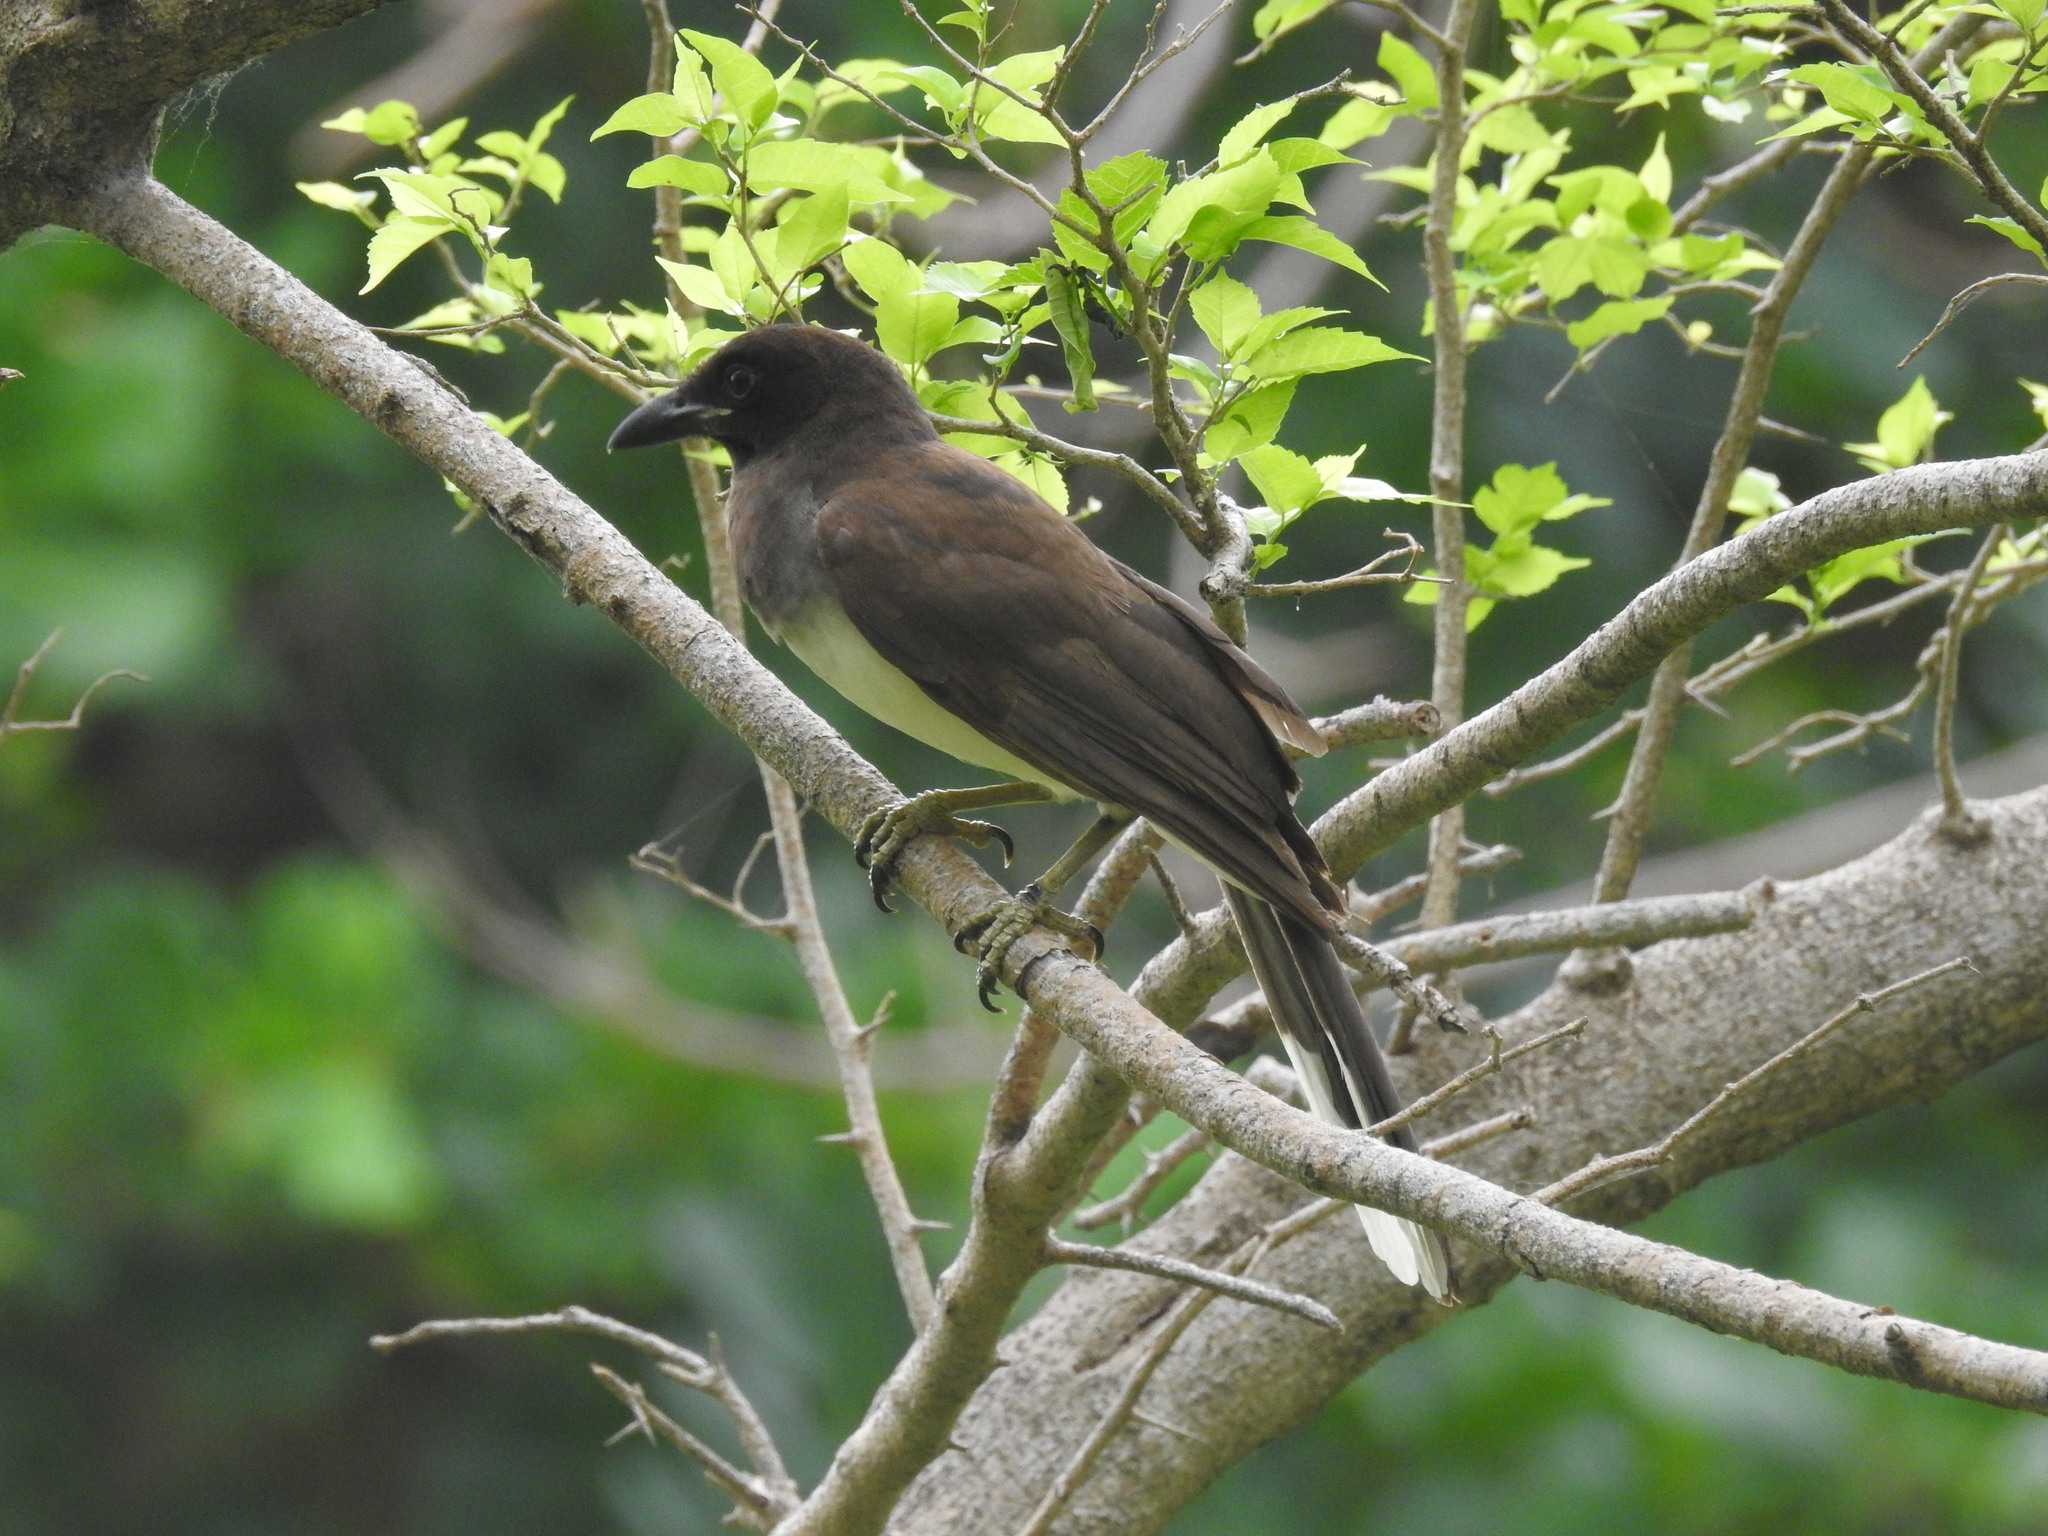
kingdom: Animalia
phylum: Chordata
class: Aves
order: Passeriformes
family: Corvidae
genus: Psilorhinus
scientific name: Psilorhinus morio
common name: Brown jay
